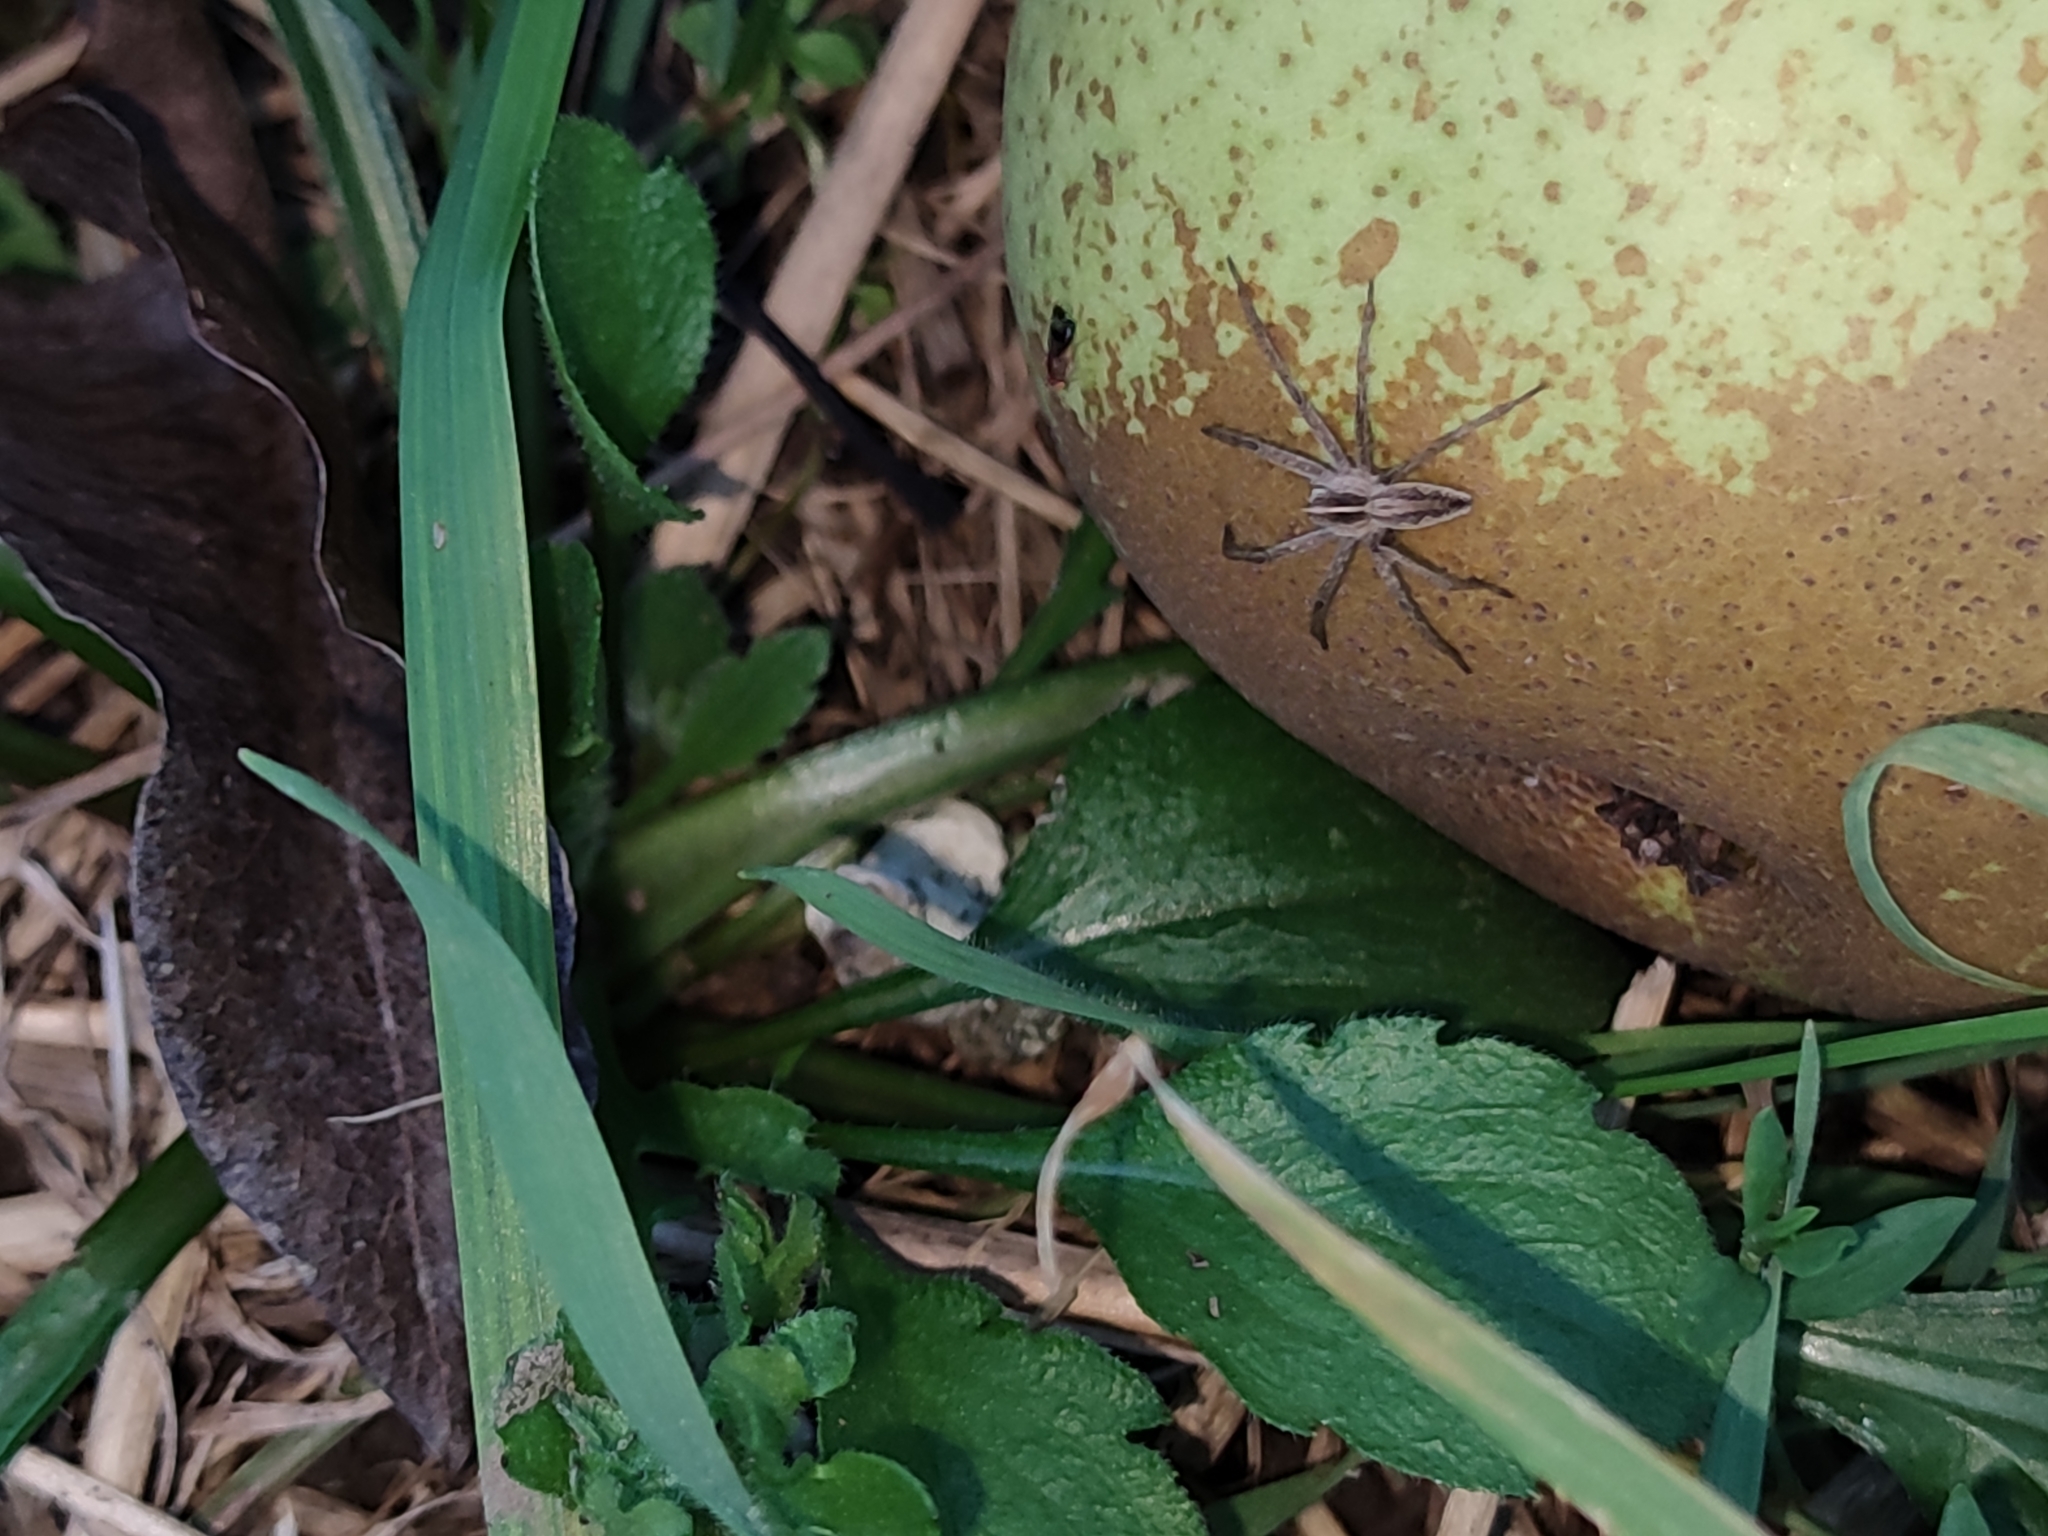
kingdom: Animalia
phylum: Arthropoda
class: Arachnida
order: Araneae
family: Pisauridae
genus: Pisaura
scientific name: Pisaura mirabilis
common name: Tent spider
